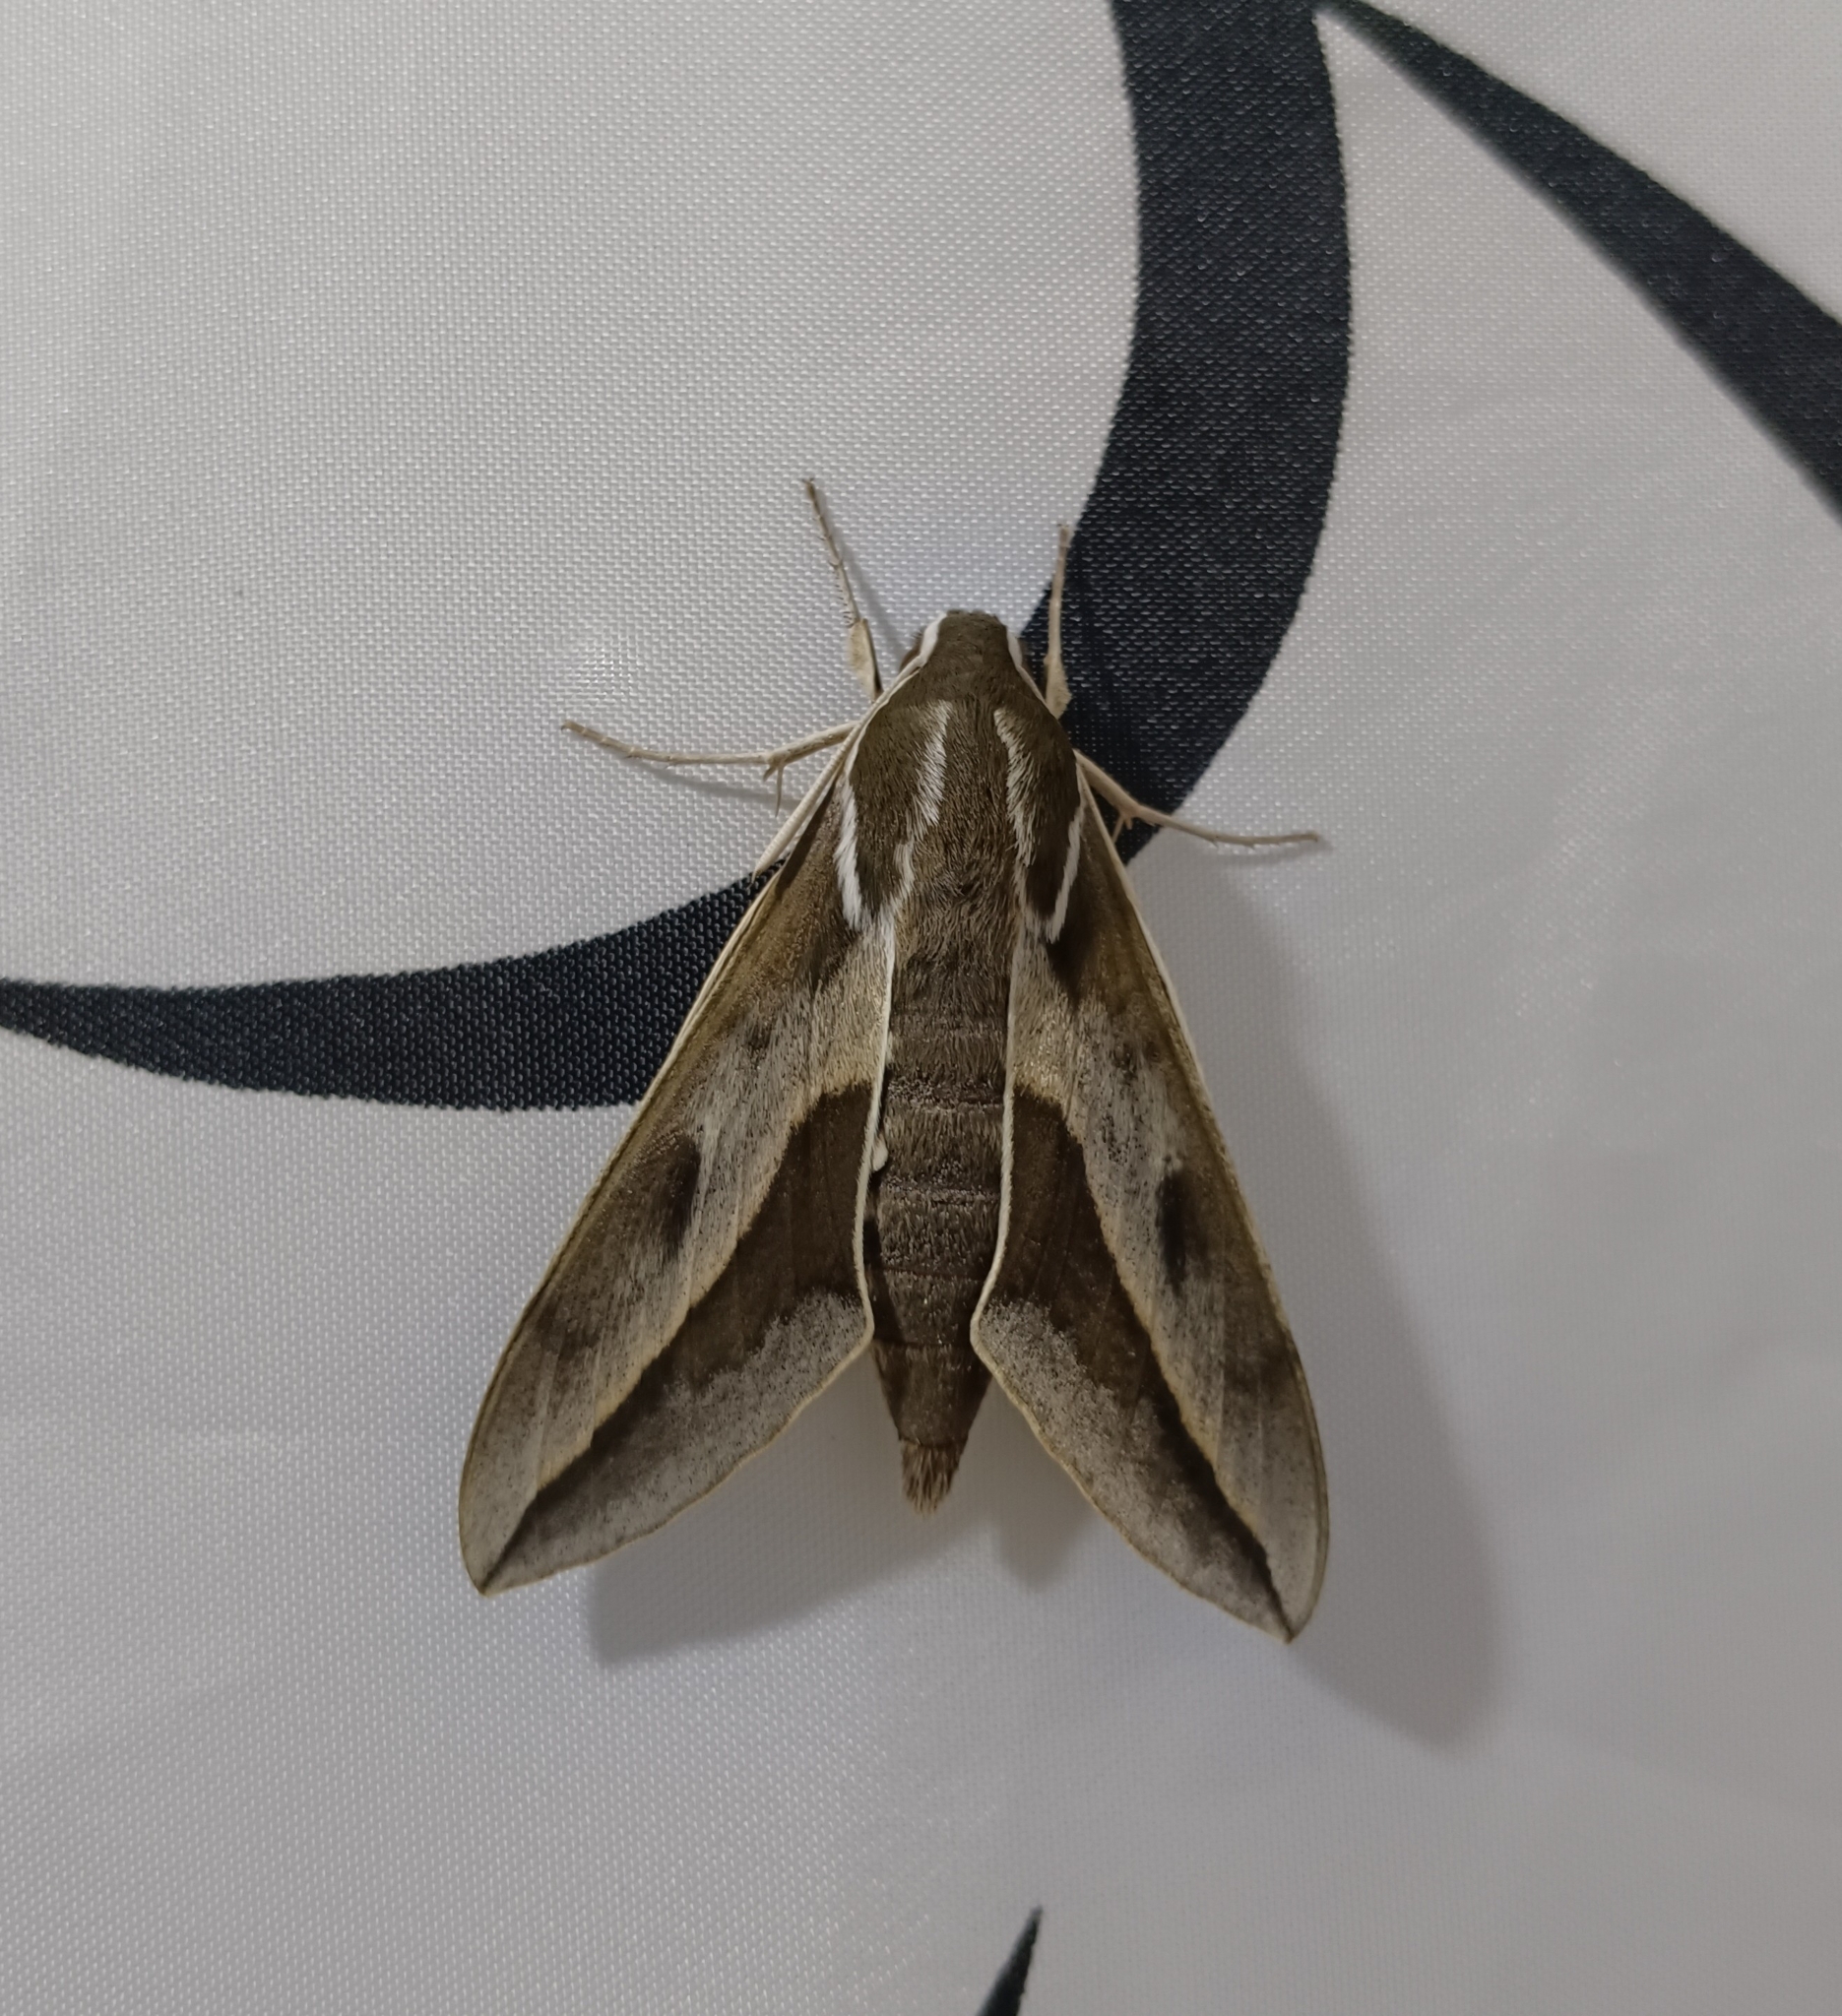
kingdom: Animalia
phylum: Arthropoda
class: Insecta
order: Lepidoptera
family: Sphingidae
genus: Hyles
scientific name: Hyles annei
